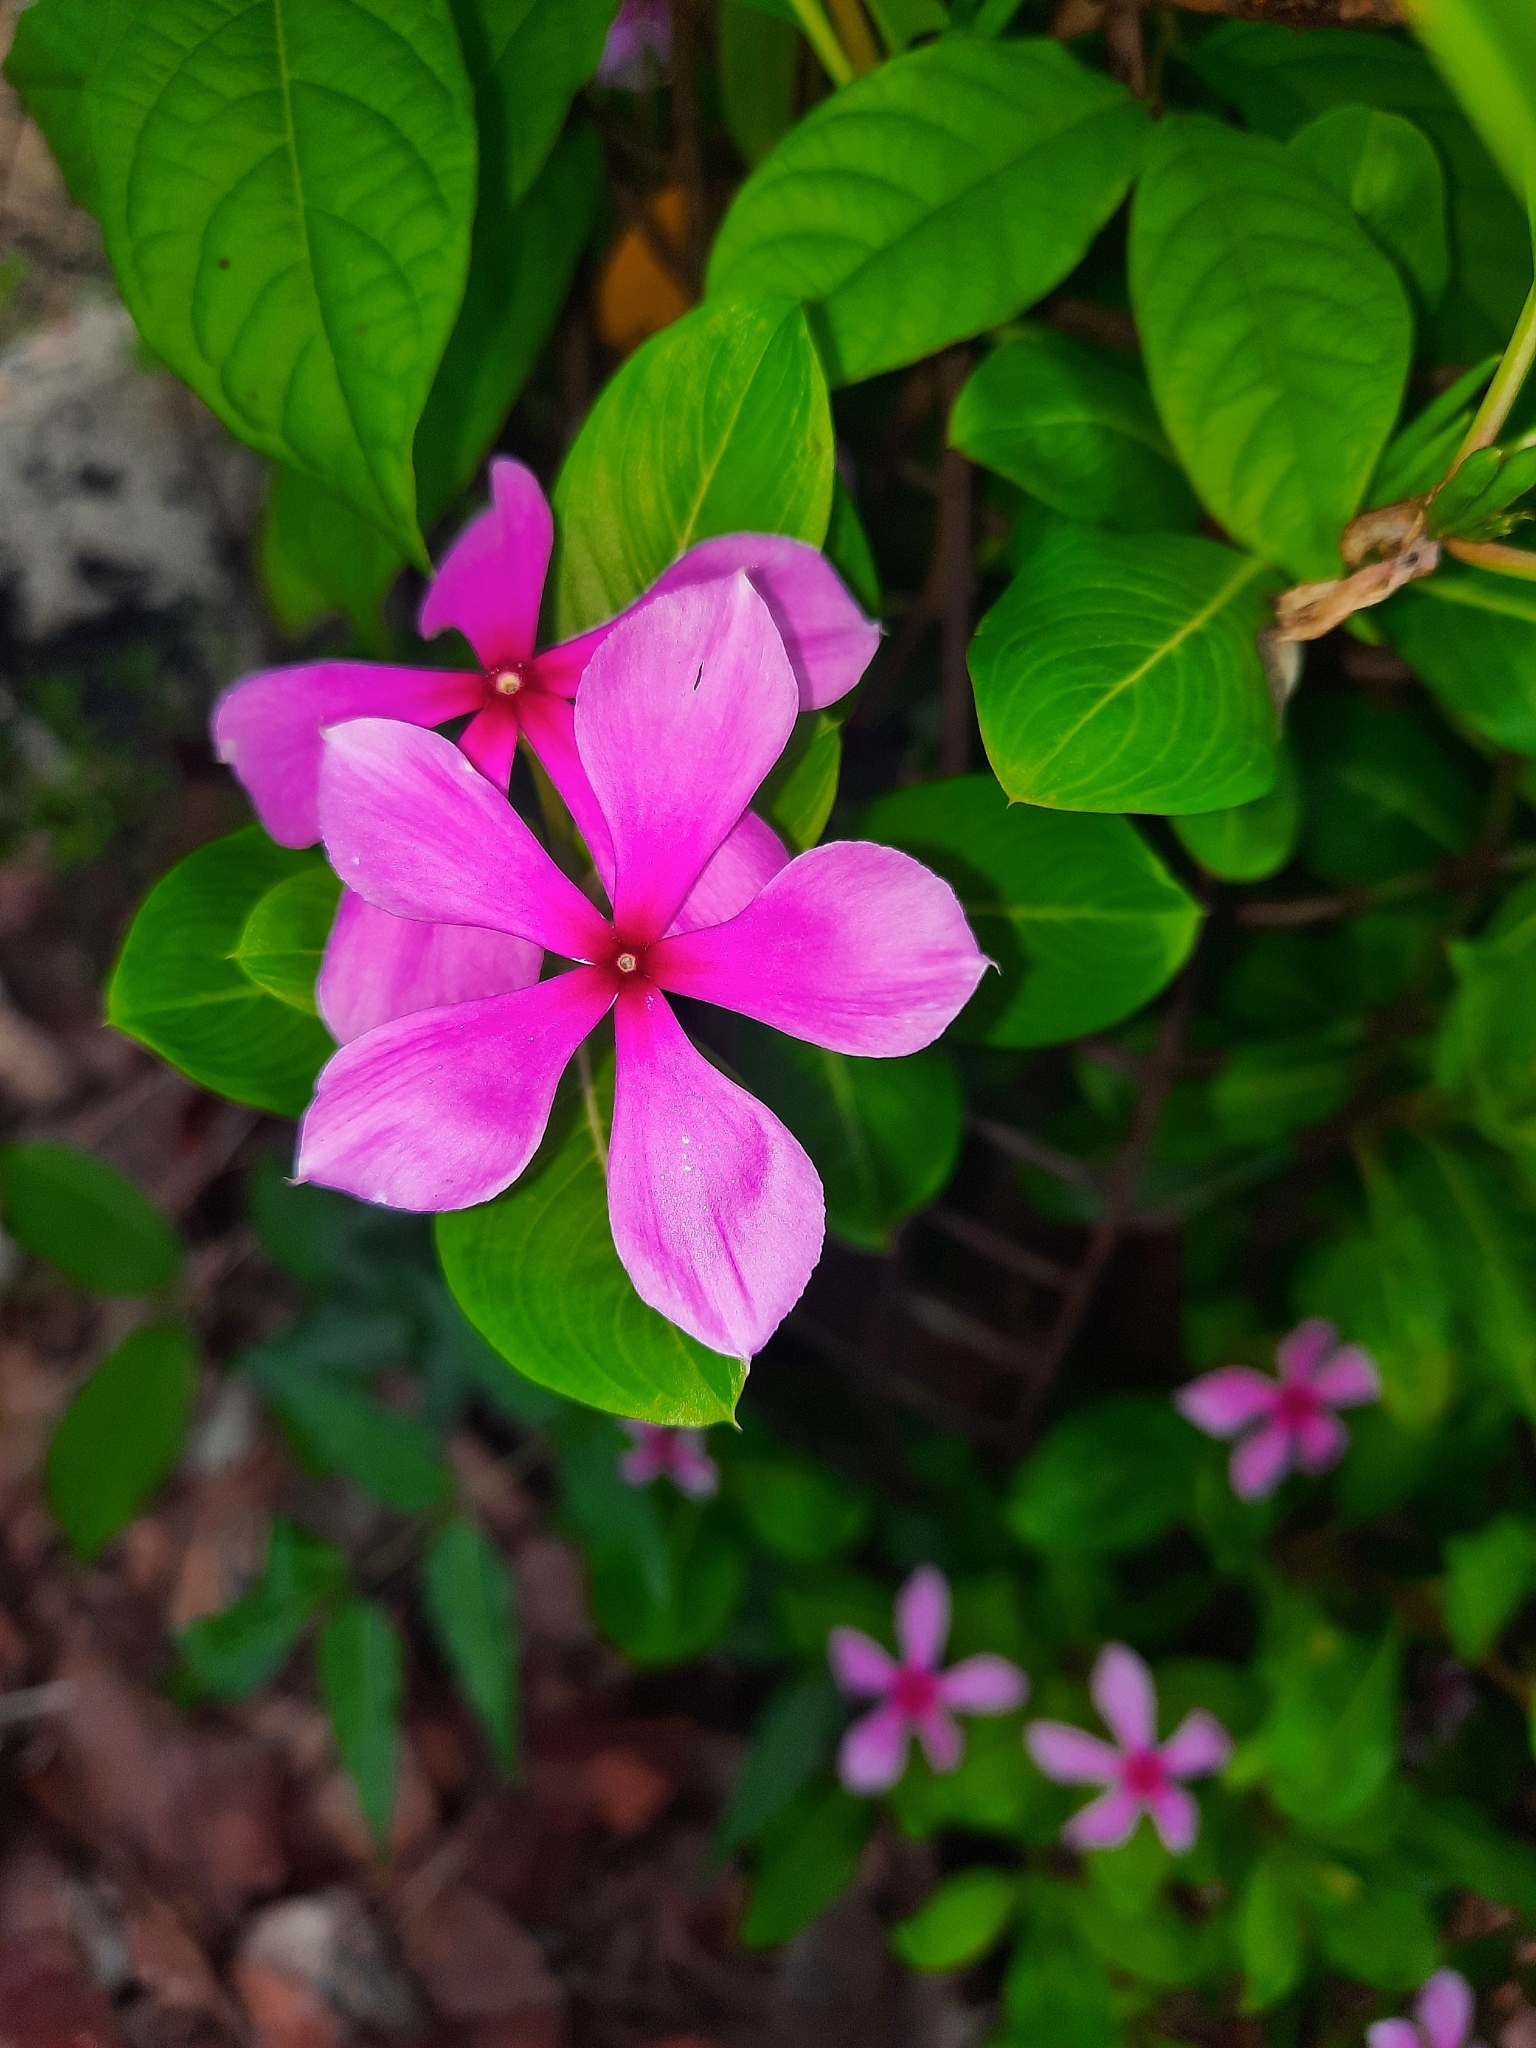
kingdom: Plantae
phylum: Tracheophyta
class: Magnoliopsida
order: Gentianales
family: Apocynaceae
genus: Catharanthus
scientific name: Catharanthus roseus
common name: Madagascar periwinkle
